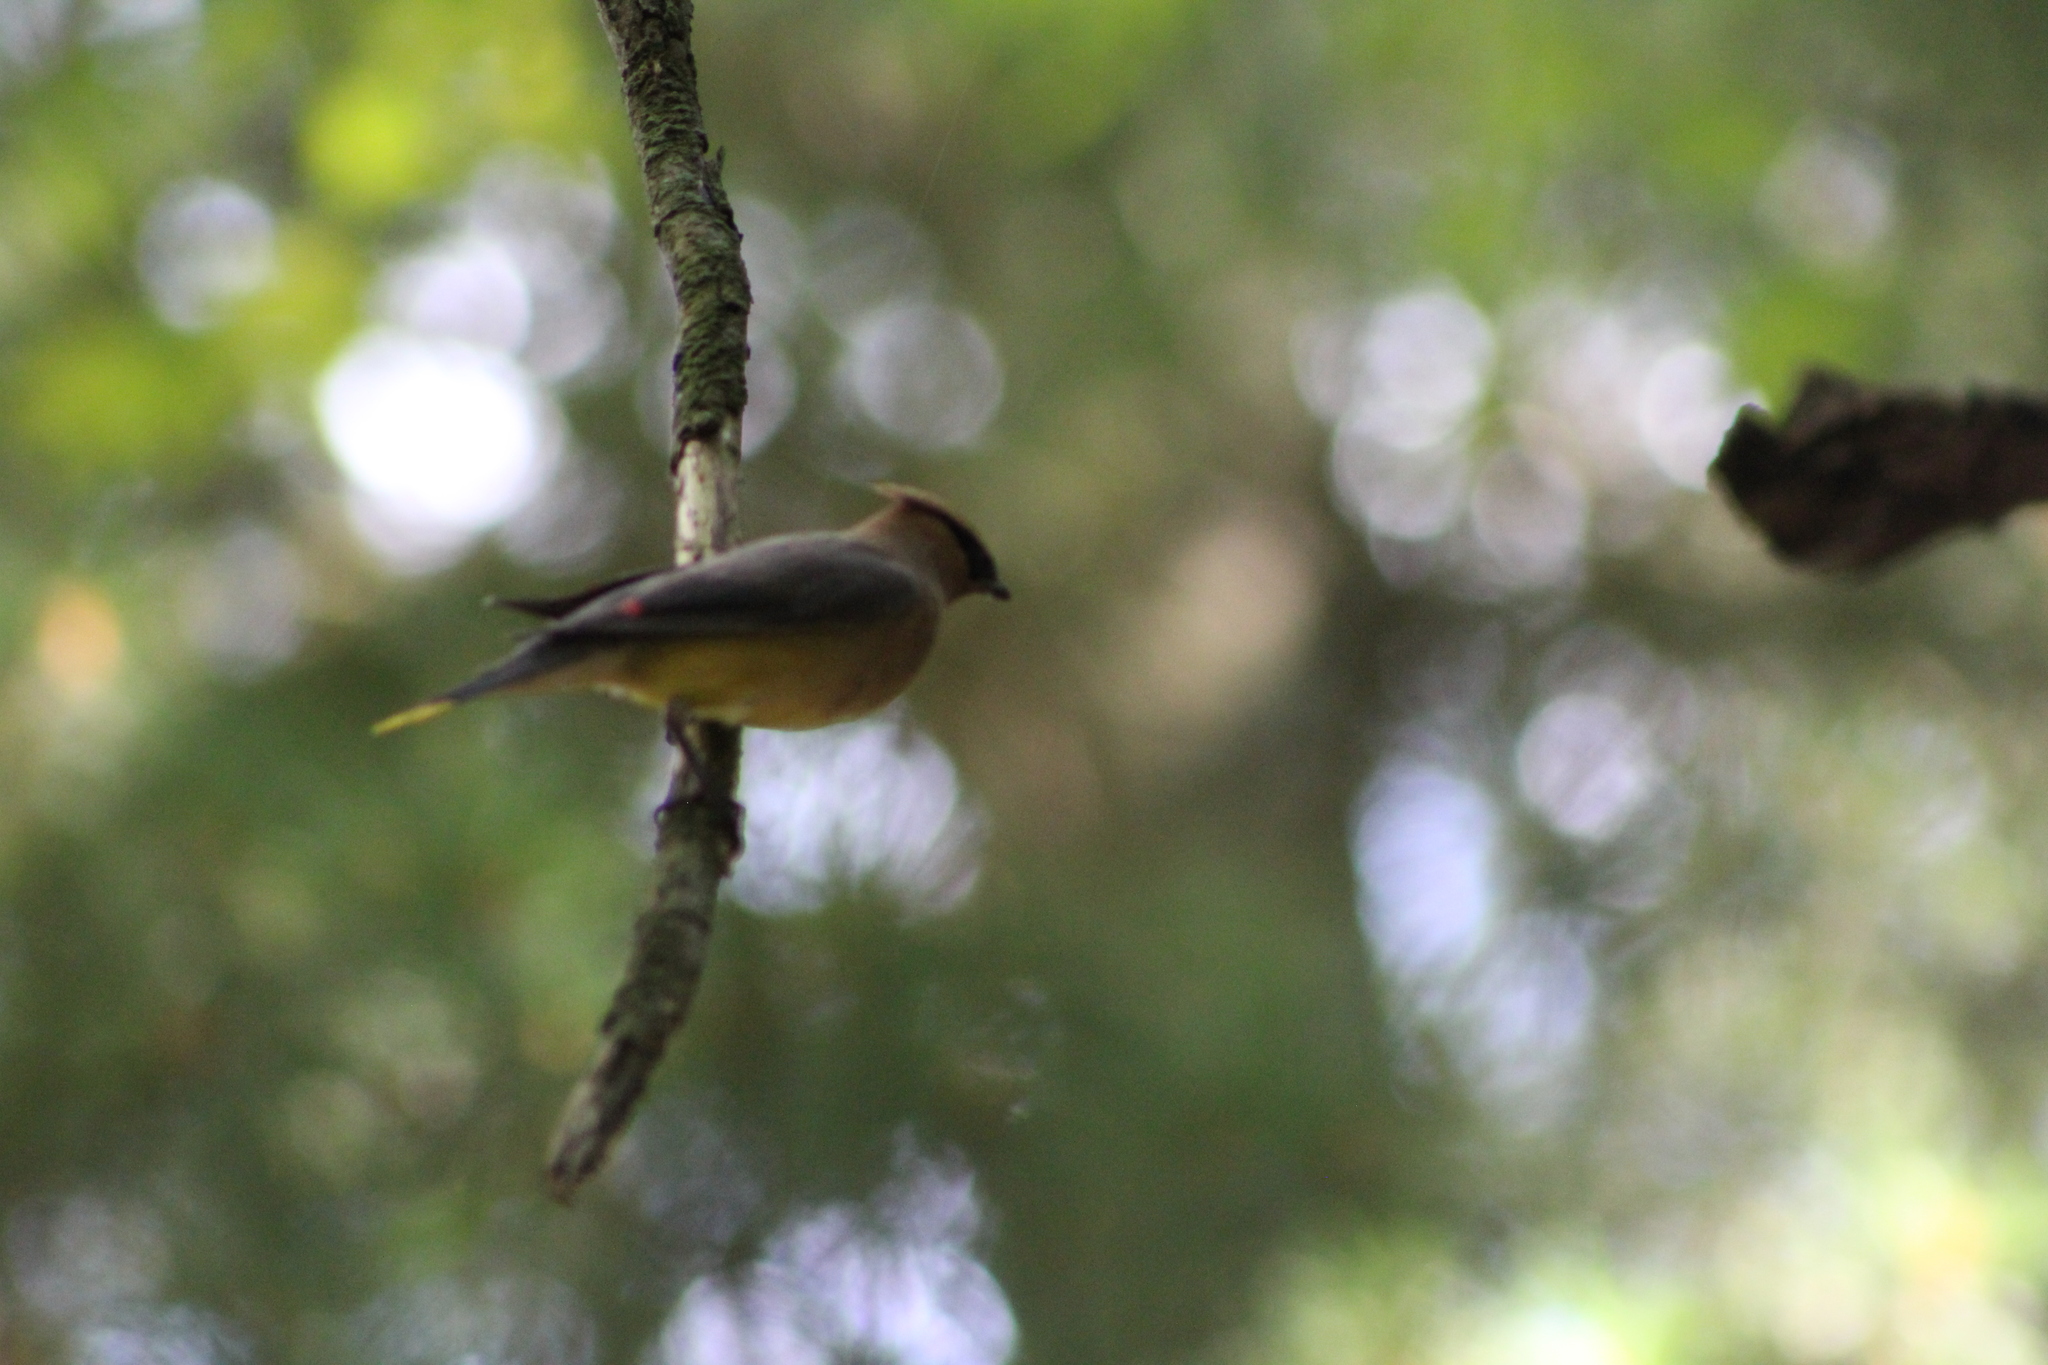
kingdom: Animalia
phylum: Chordata
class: Aves
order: Passeriformes
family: Bombycillidae
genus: Bombycilla
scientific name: Bombycilla cedrorum
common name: Cedar waxwing
